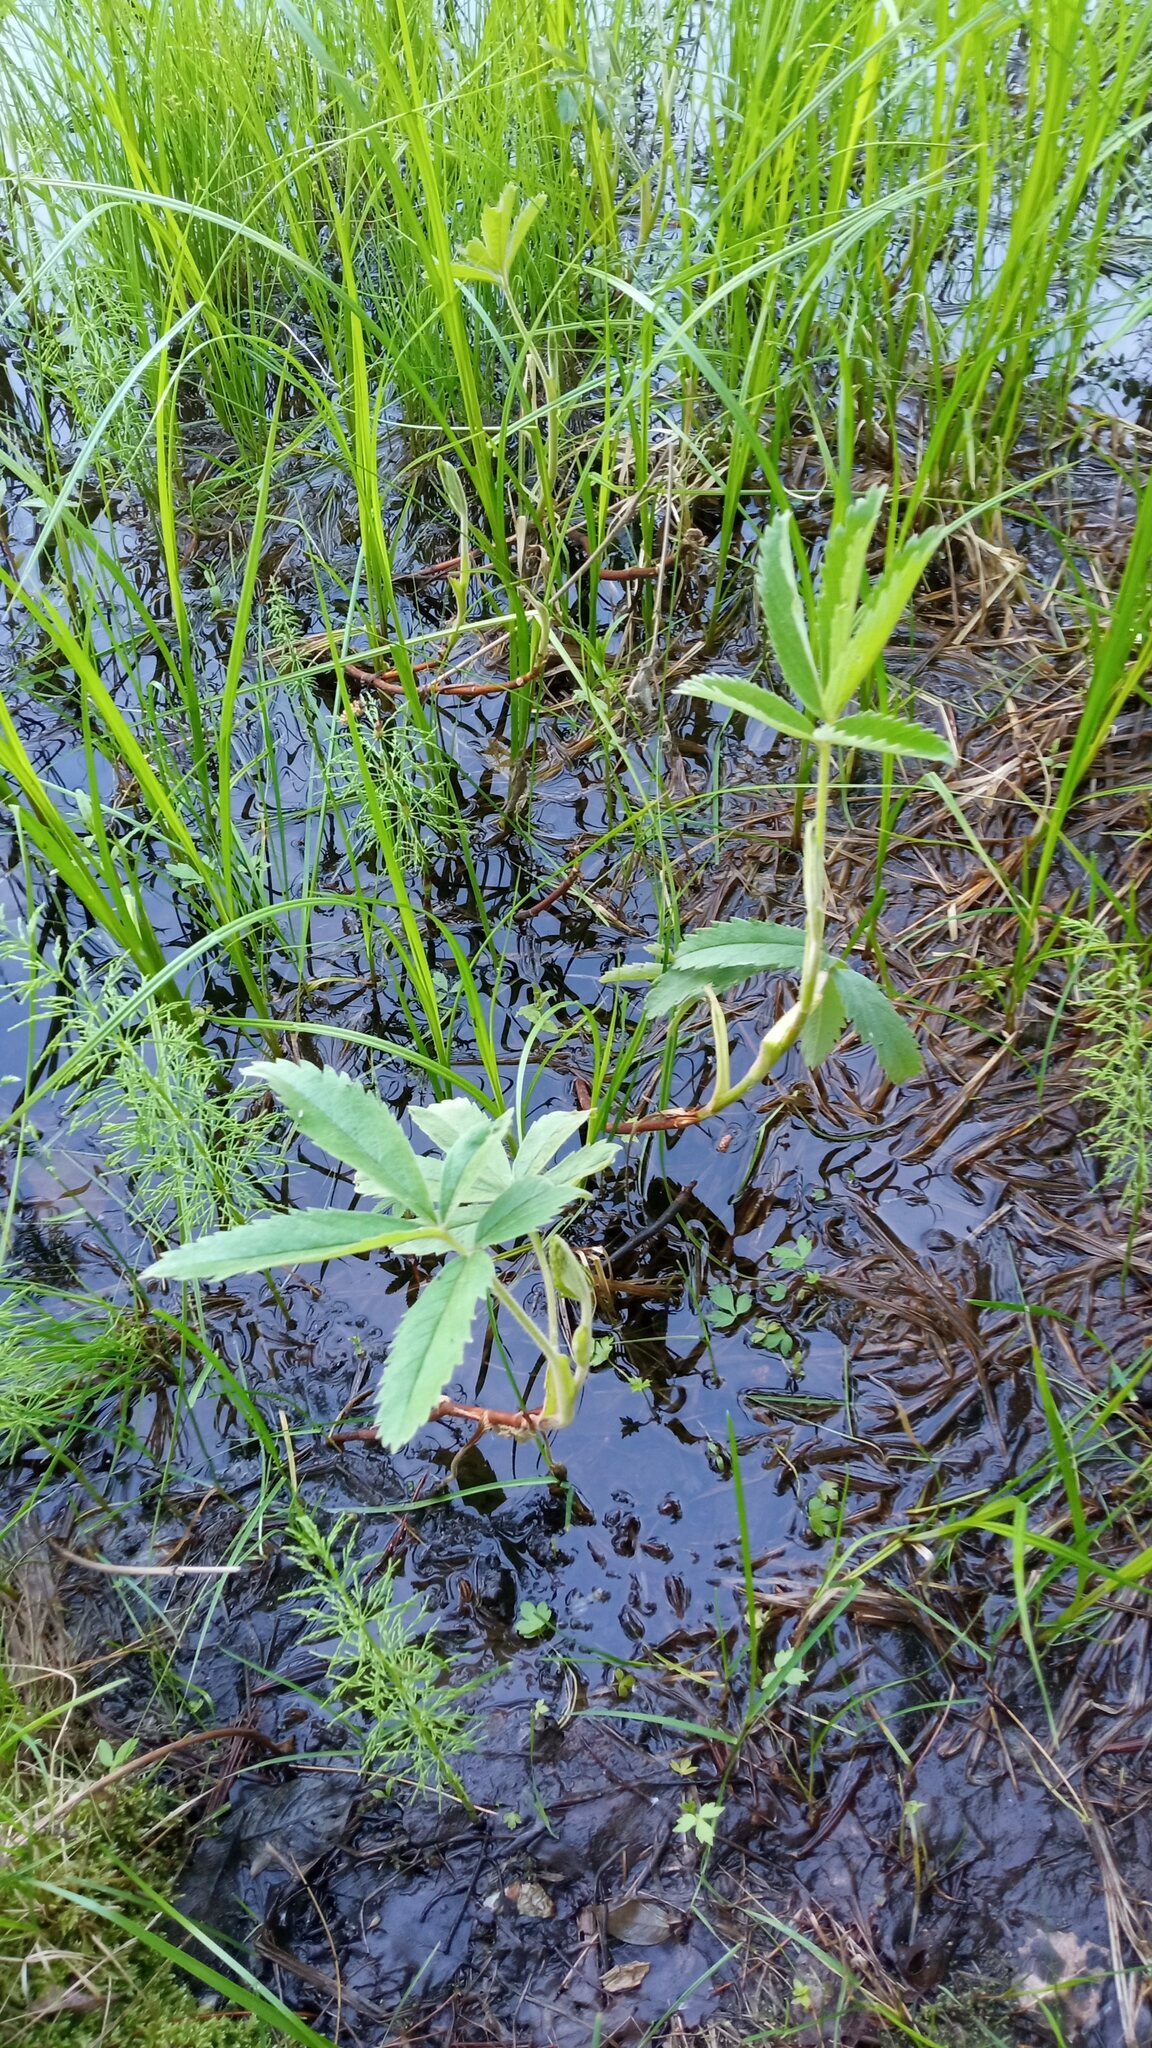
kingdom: Plantae
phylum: Tracheophyta
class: Magnoliopsida
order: Rosales
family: Rosaceae
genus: Comarum
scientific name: Comarum palustre
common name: Marsh cinquefoil
